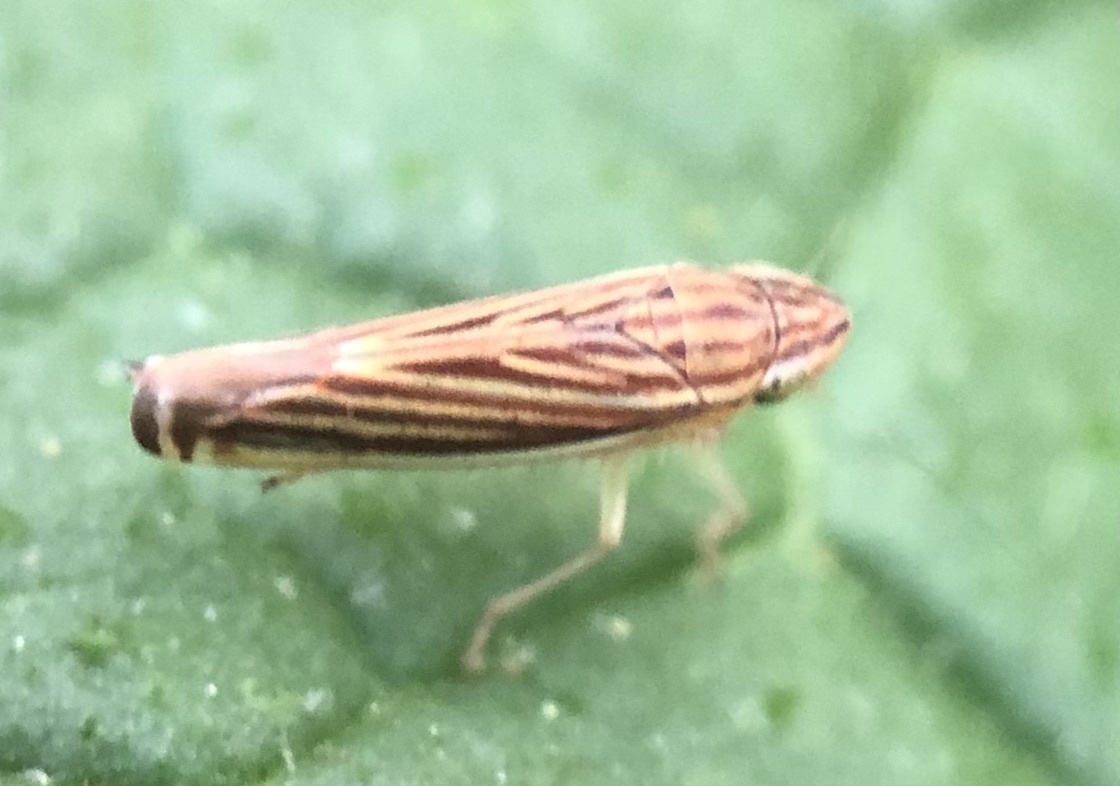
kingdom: Animalia
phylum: Arthropoda
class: Insecta
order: Hemiptera
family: Cicadellidae
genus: Sibovia
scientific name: Sibovia occatoria
